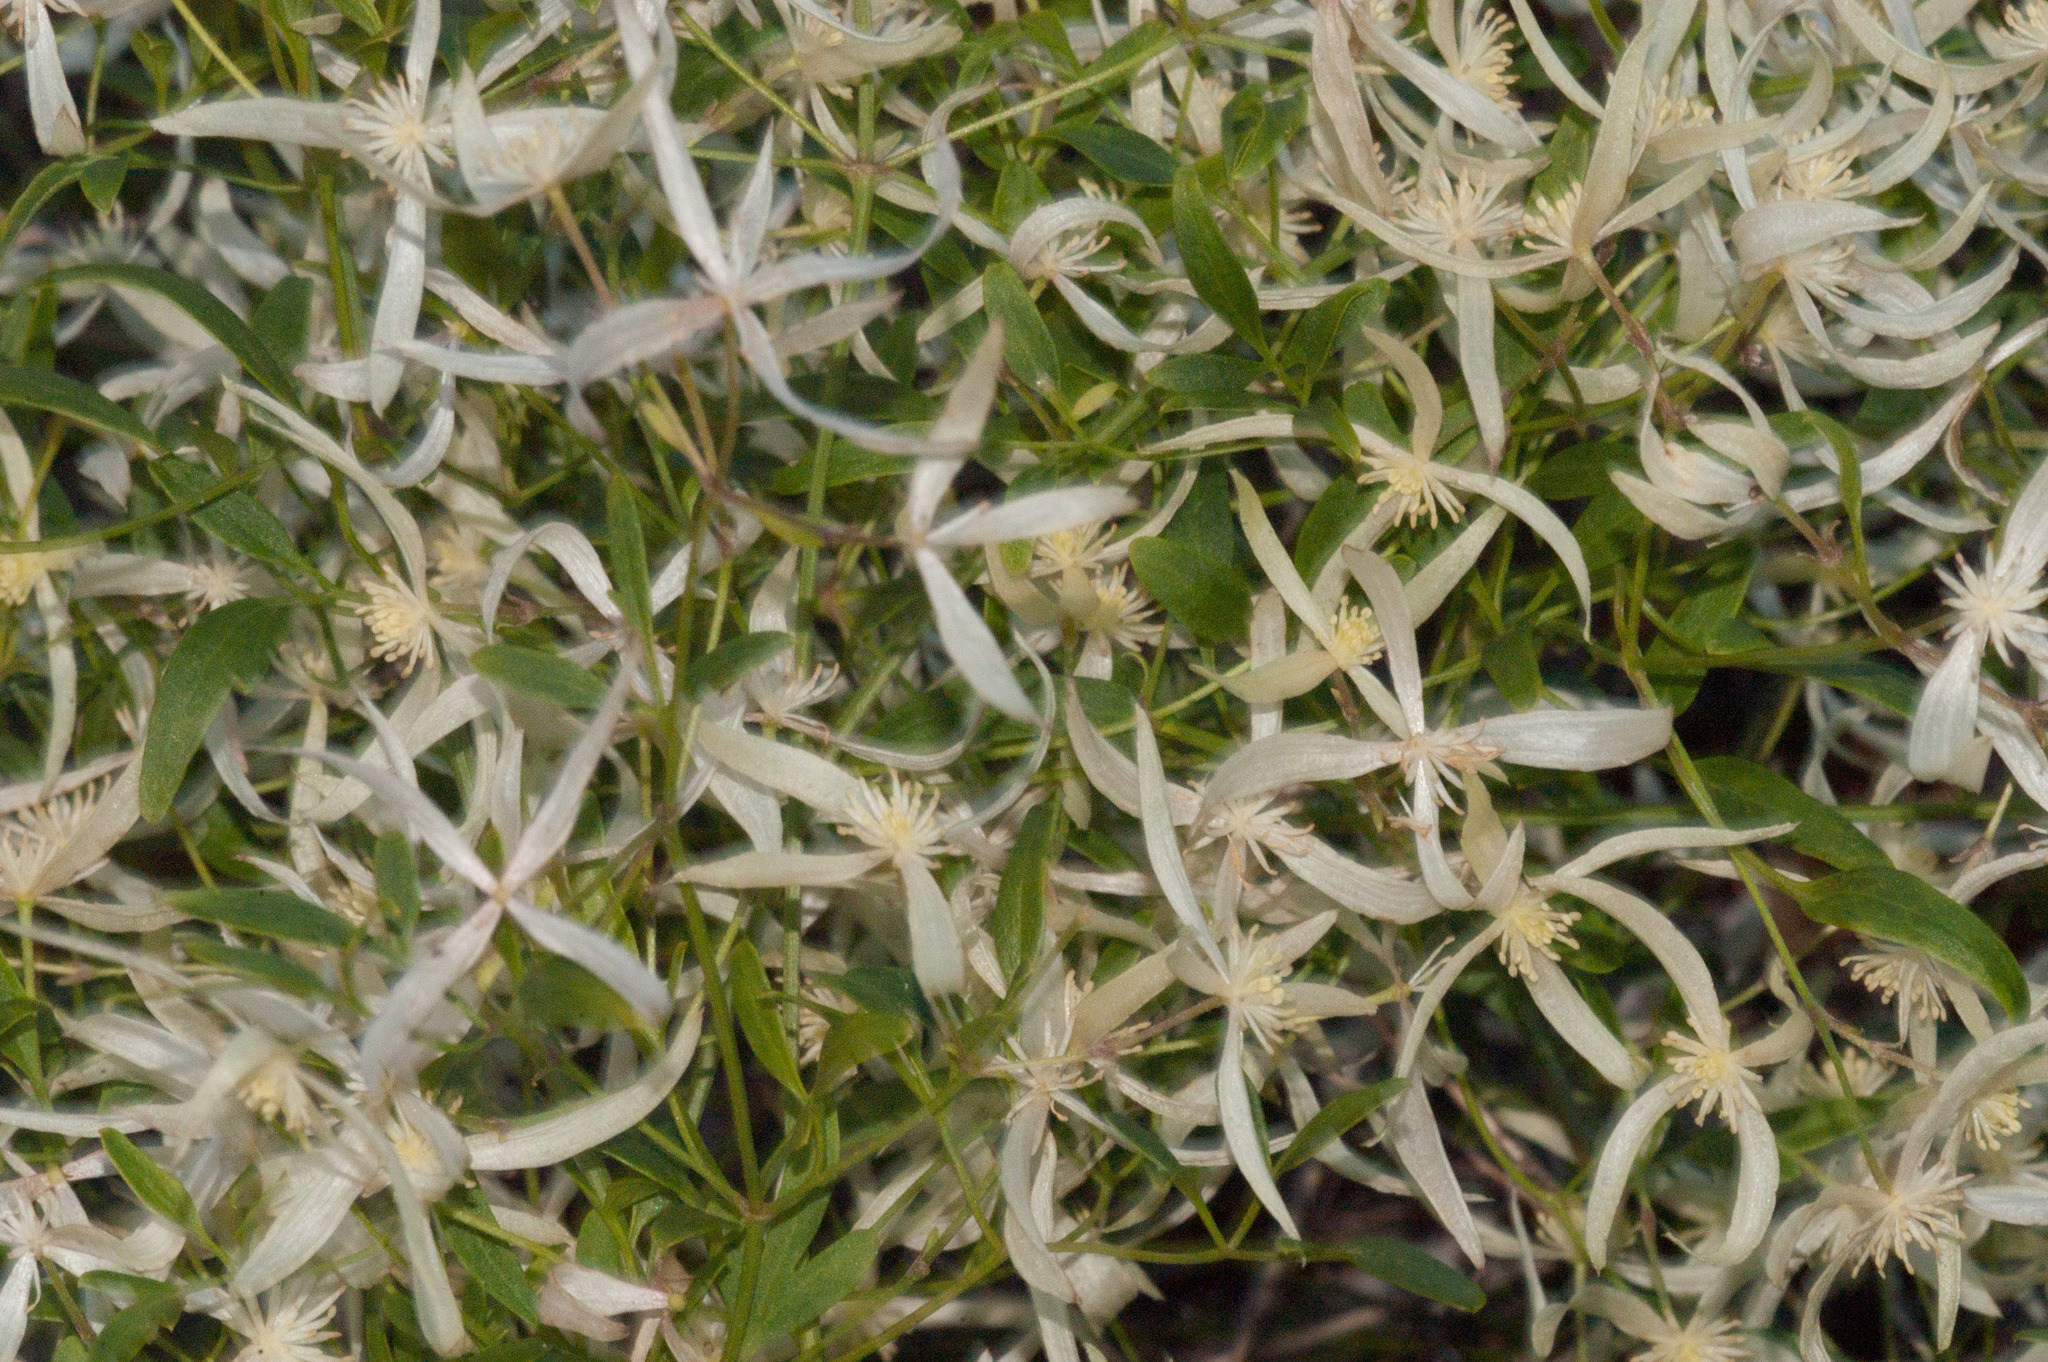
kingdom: Plantae
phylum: Tracheophyta
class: Magnoliopsida
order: Ranunculales
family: Ranunculaceae
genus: Clematis
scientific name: Clematis microphylla
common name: Headachevine
